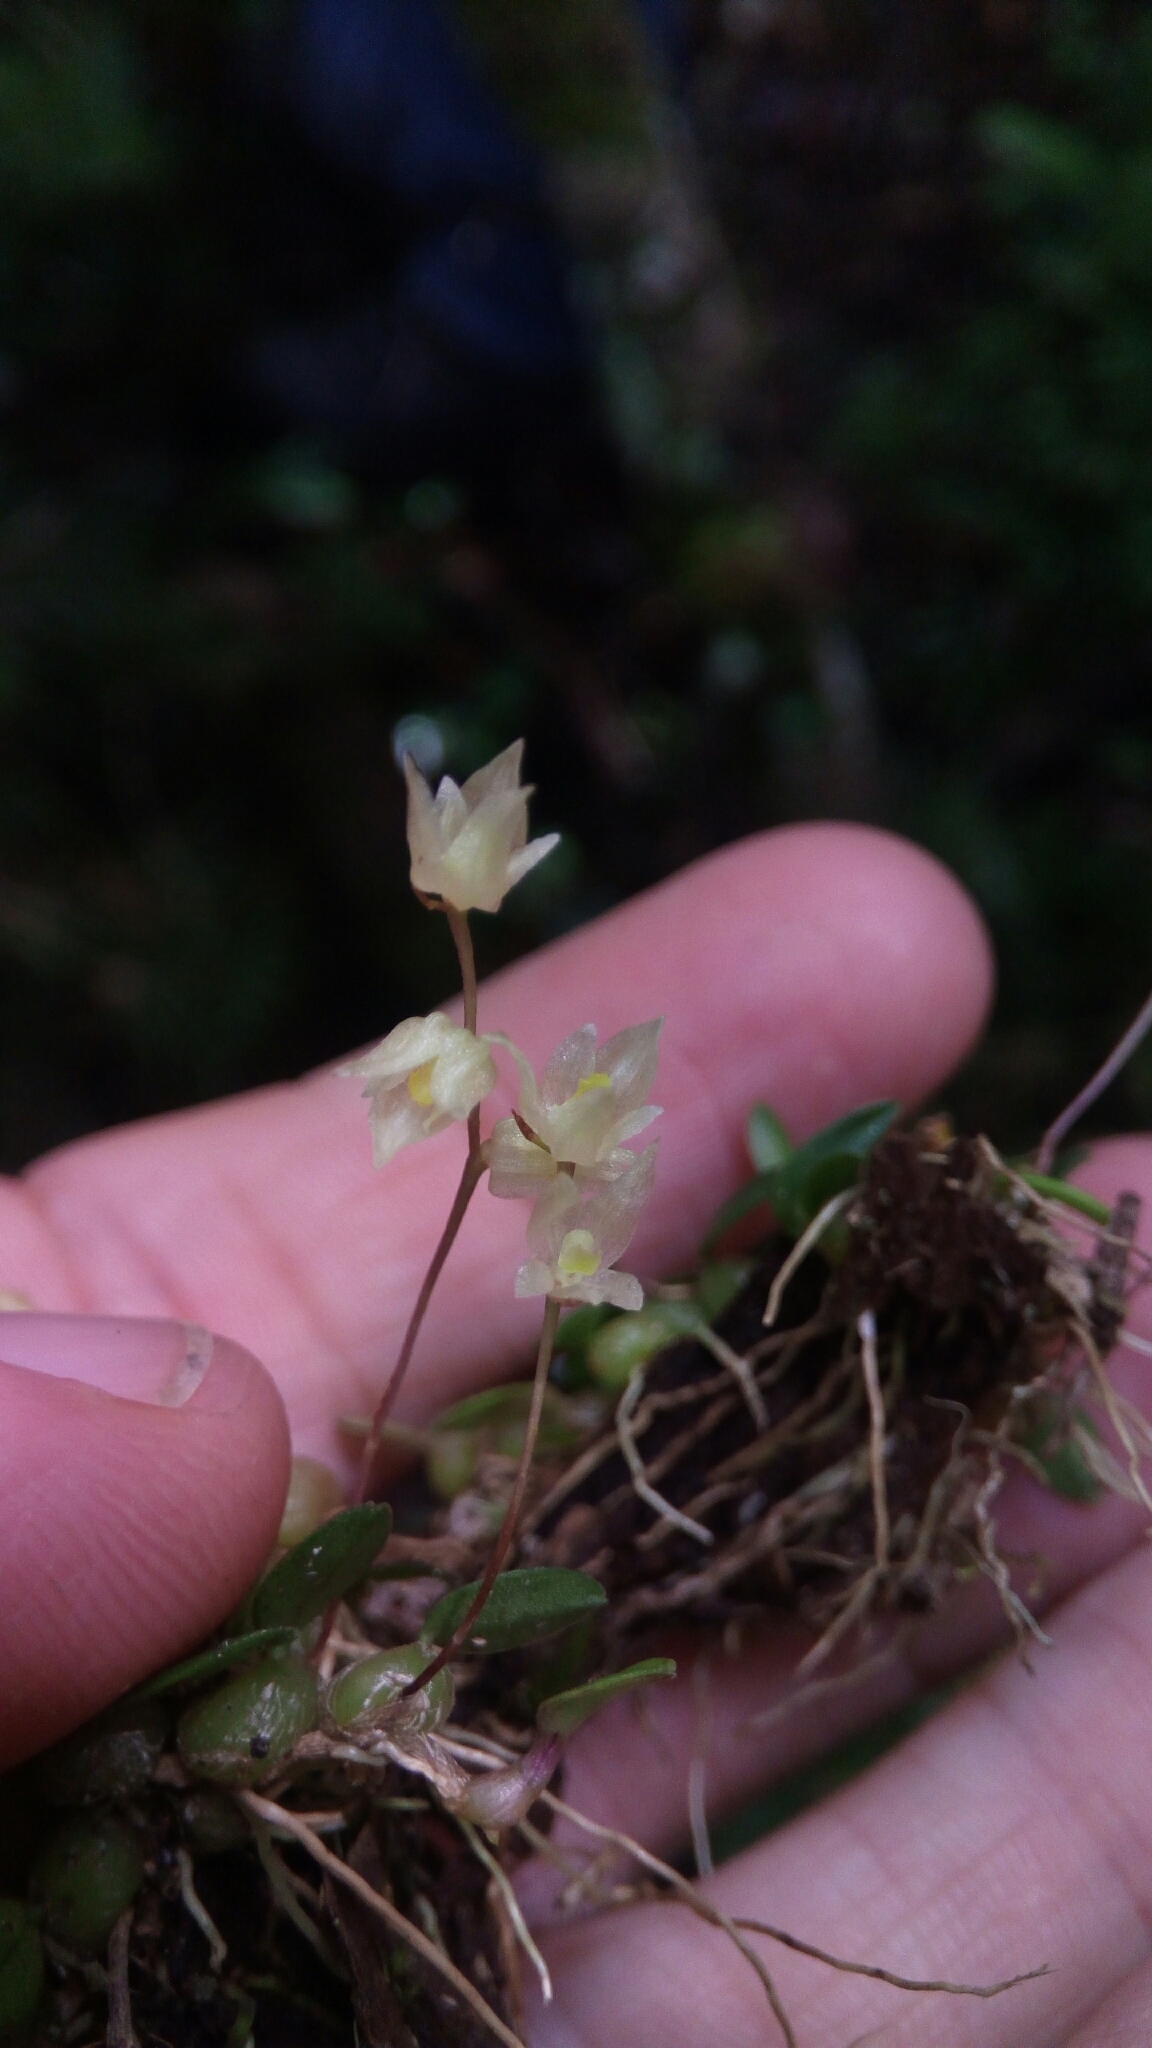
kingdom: Plantae
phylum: Tracheophyta
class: Liliopsida
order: Asparagales
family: Orchidaceae
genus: Bulbophyllum
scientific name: Bulbophyllum conchidioides
